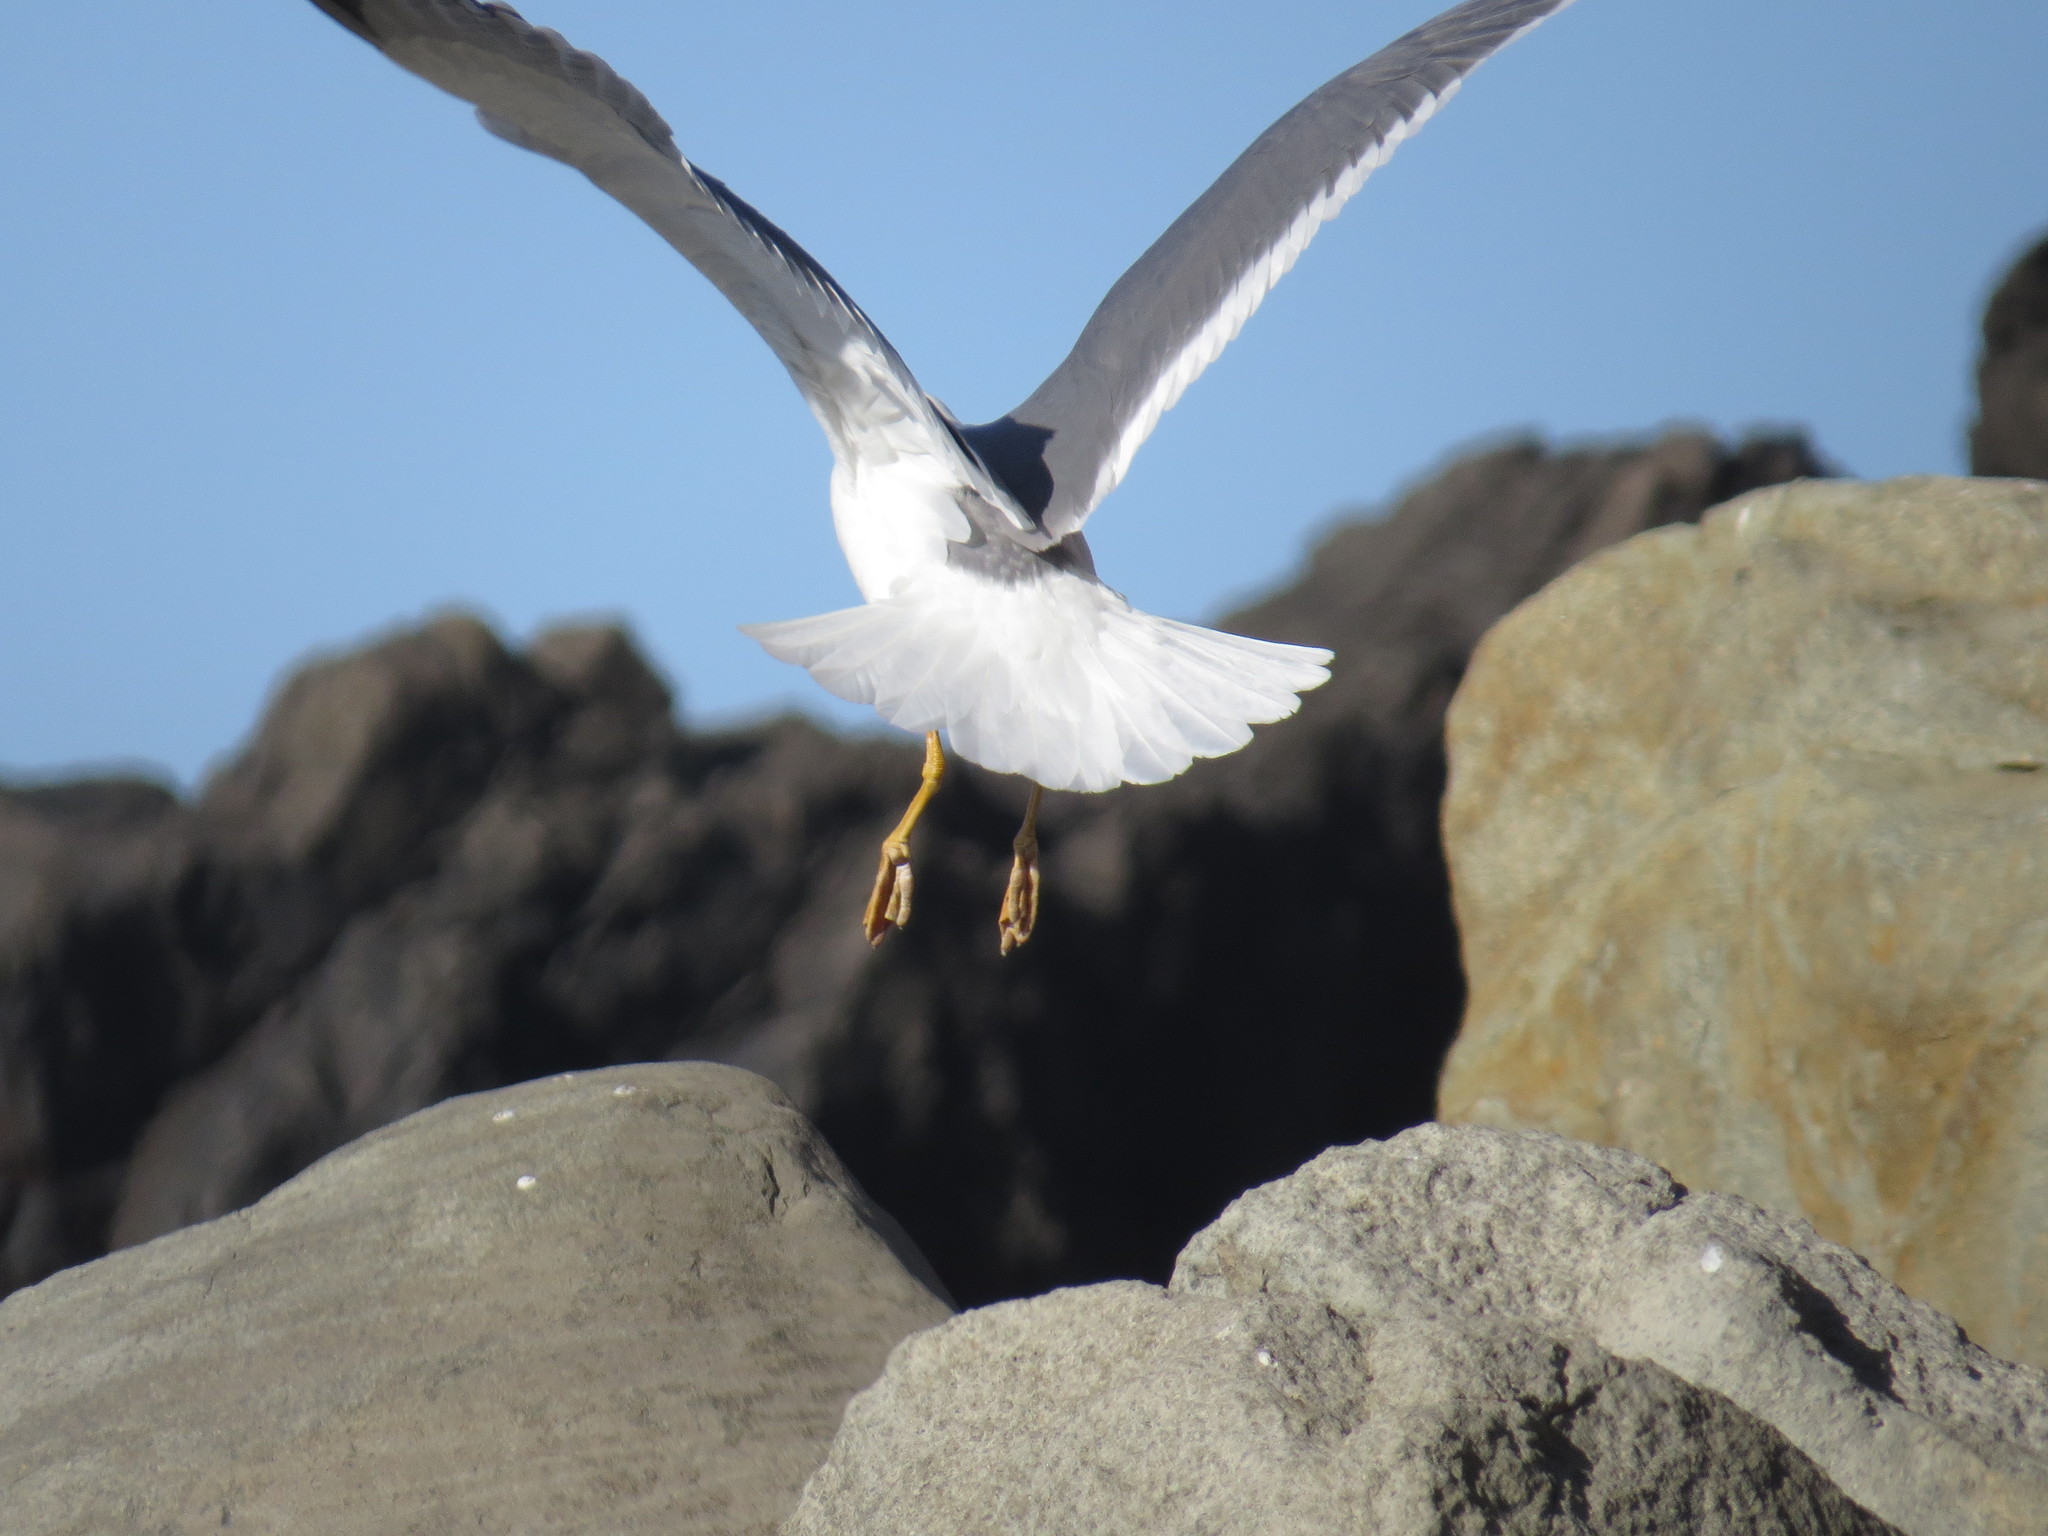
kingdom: Animalia
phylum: Chordata
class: Aves
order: Charadriiformes
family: Laridae
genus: Larus
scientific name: Larus michahellis
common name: Yellow-legged gull
